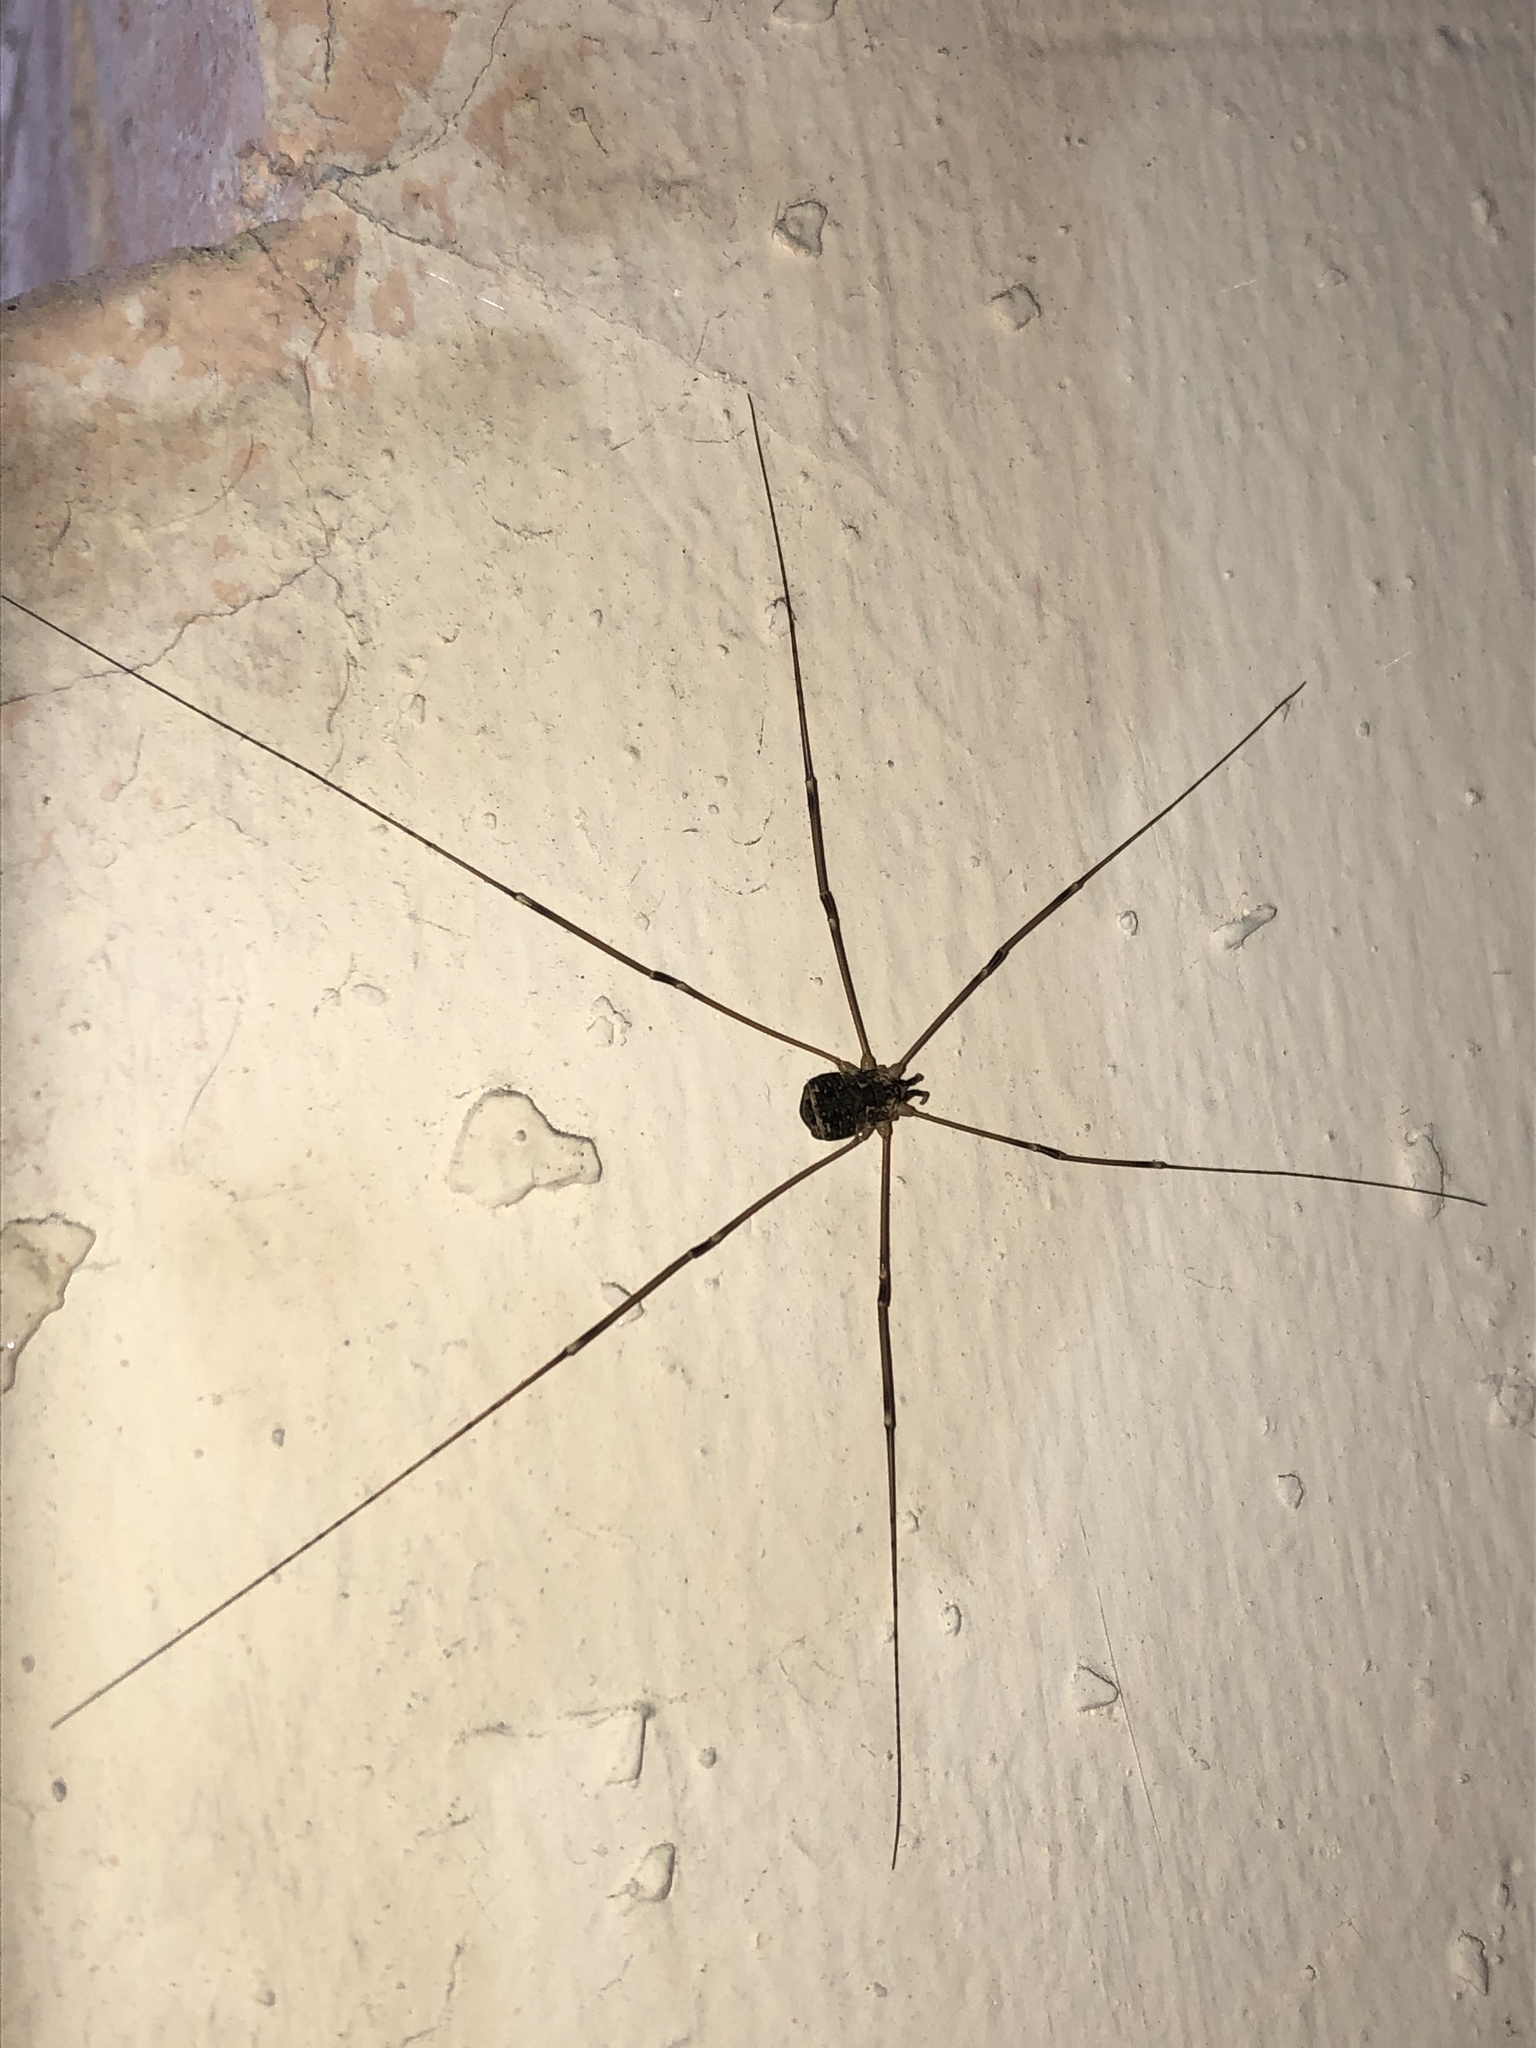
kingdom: Animalia
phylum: Arthropoda
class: Arachnida
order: Opiliones
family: Sclerosomatidae
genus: Leiobunum
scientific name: Leiobunum gracile
